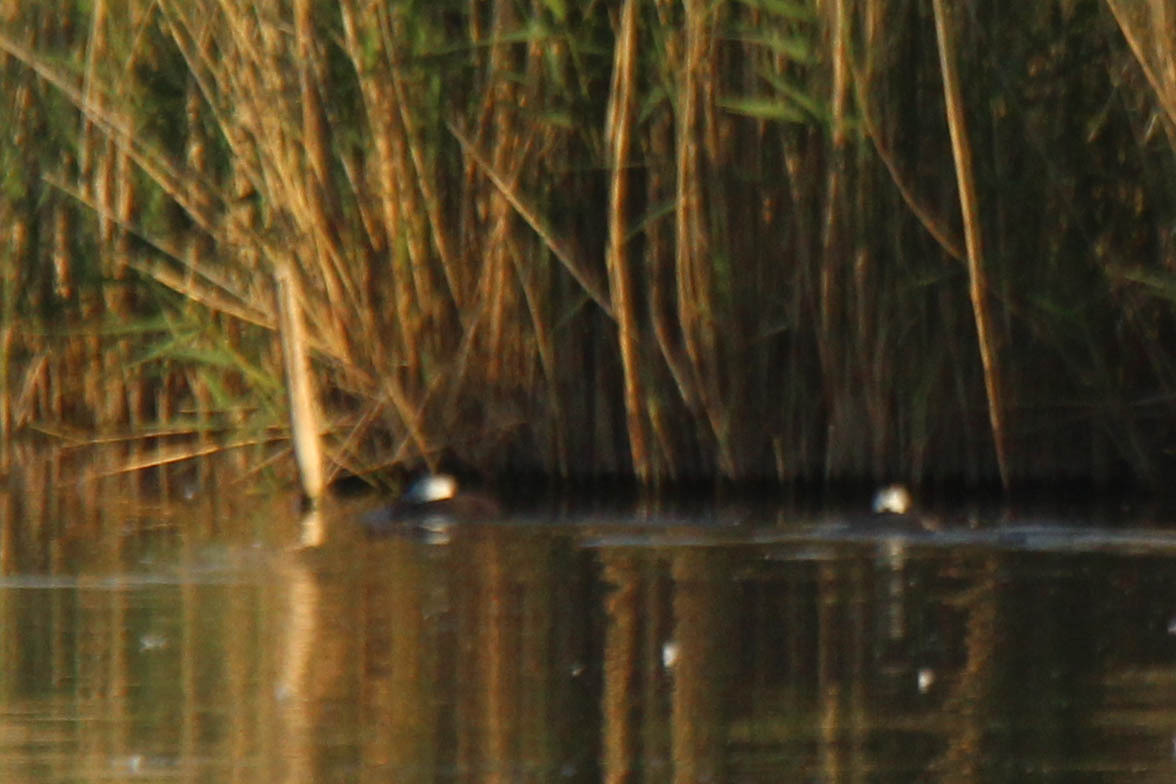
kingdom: Animalia
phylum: Chordata
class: Aves
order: Anseriformes
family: Anatidae
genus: Oxyura
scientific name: Oxyura leucocephala
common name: White-headed duck
